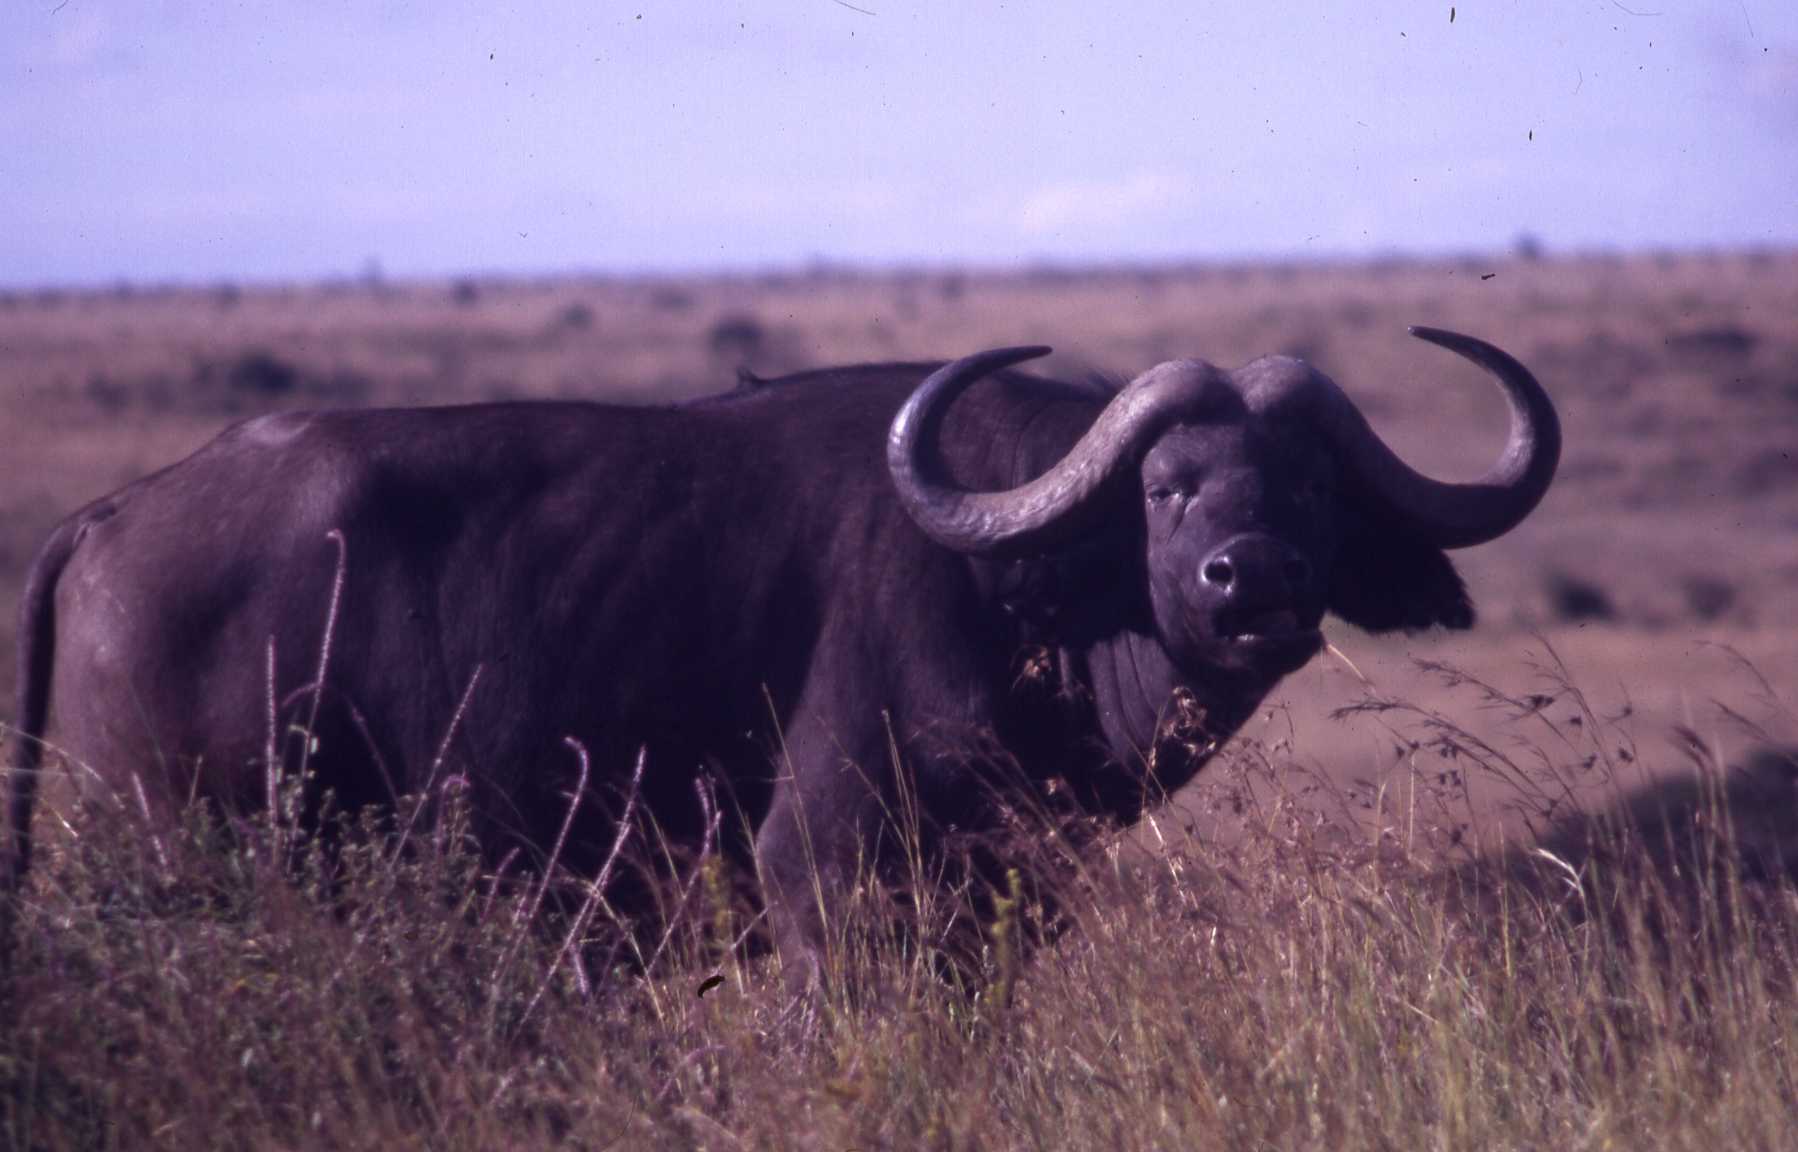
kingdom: Animalia
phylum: Chordata
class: Mammalia
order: Artiodactyla
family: Bovidae
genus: Syncerus
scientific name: Syncerus caffer
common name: African buffalo
